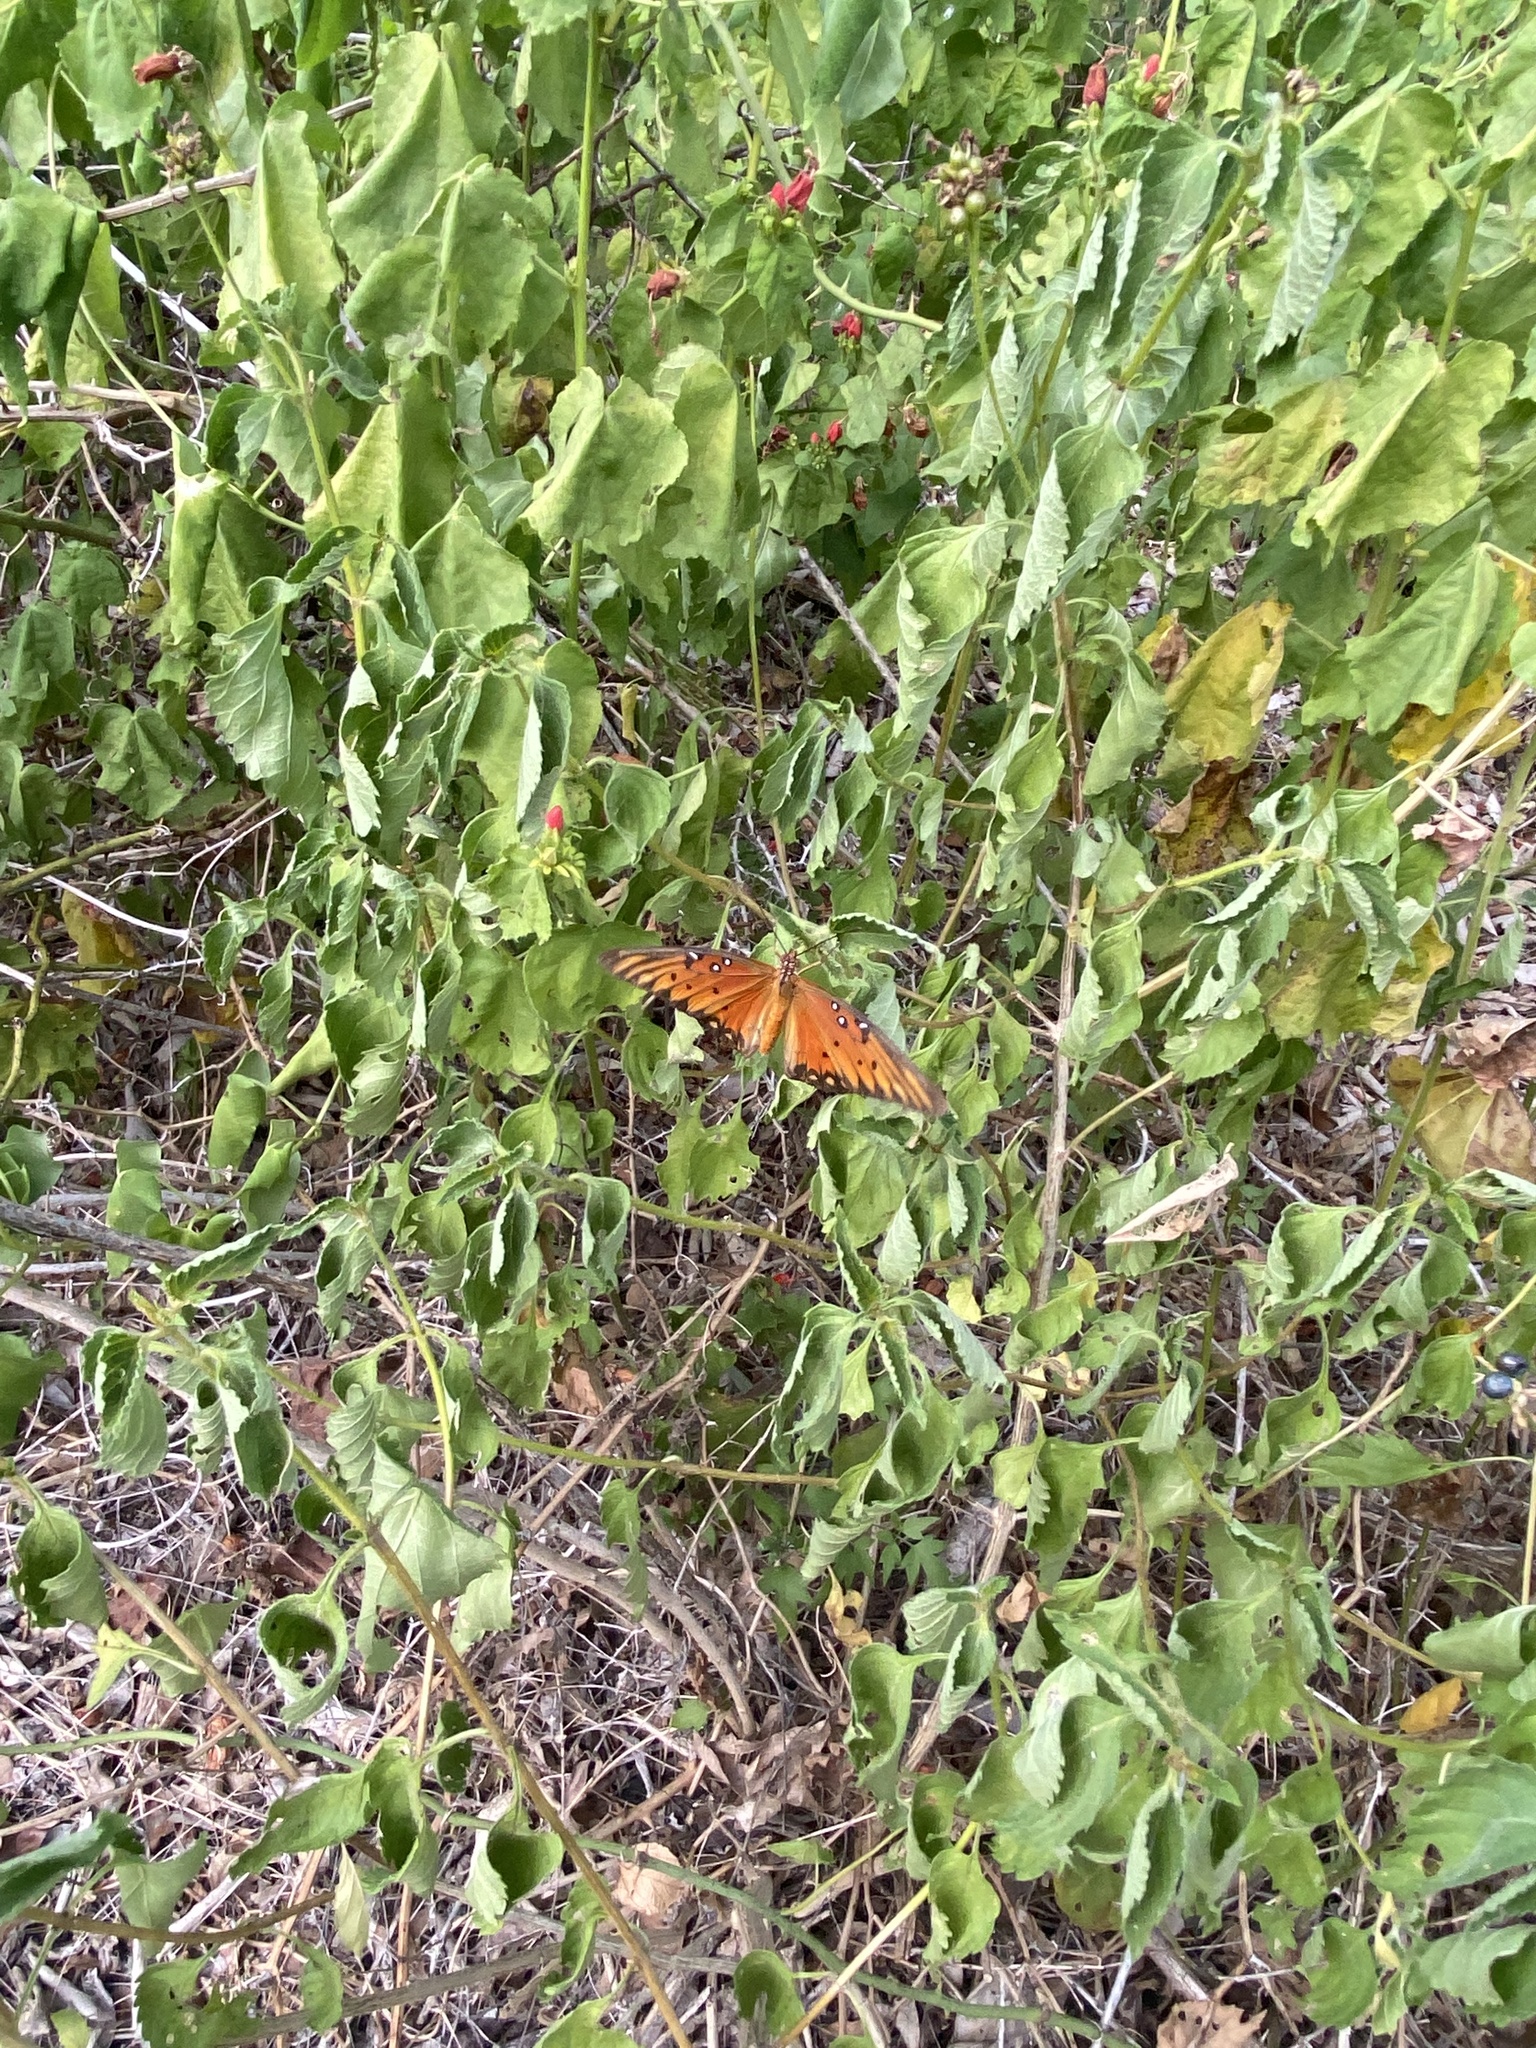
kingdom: Animalia
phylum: Arthropoda
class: Insecta
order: Lepidoptera
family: Nymphalidae
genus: Dione
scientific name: Dione vanillae
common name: Gulf fritillary
